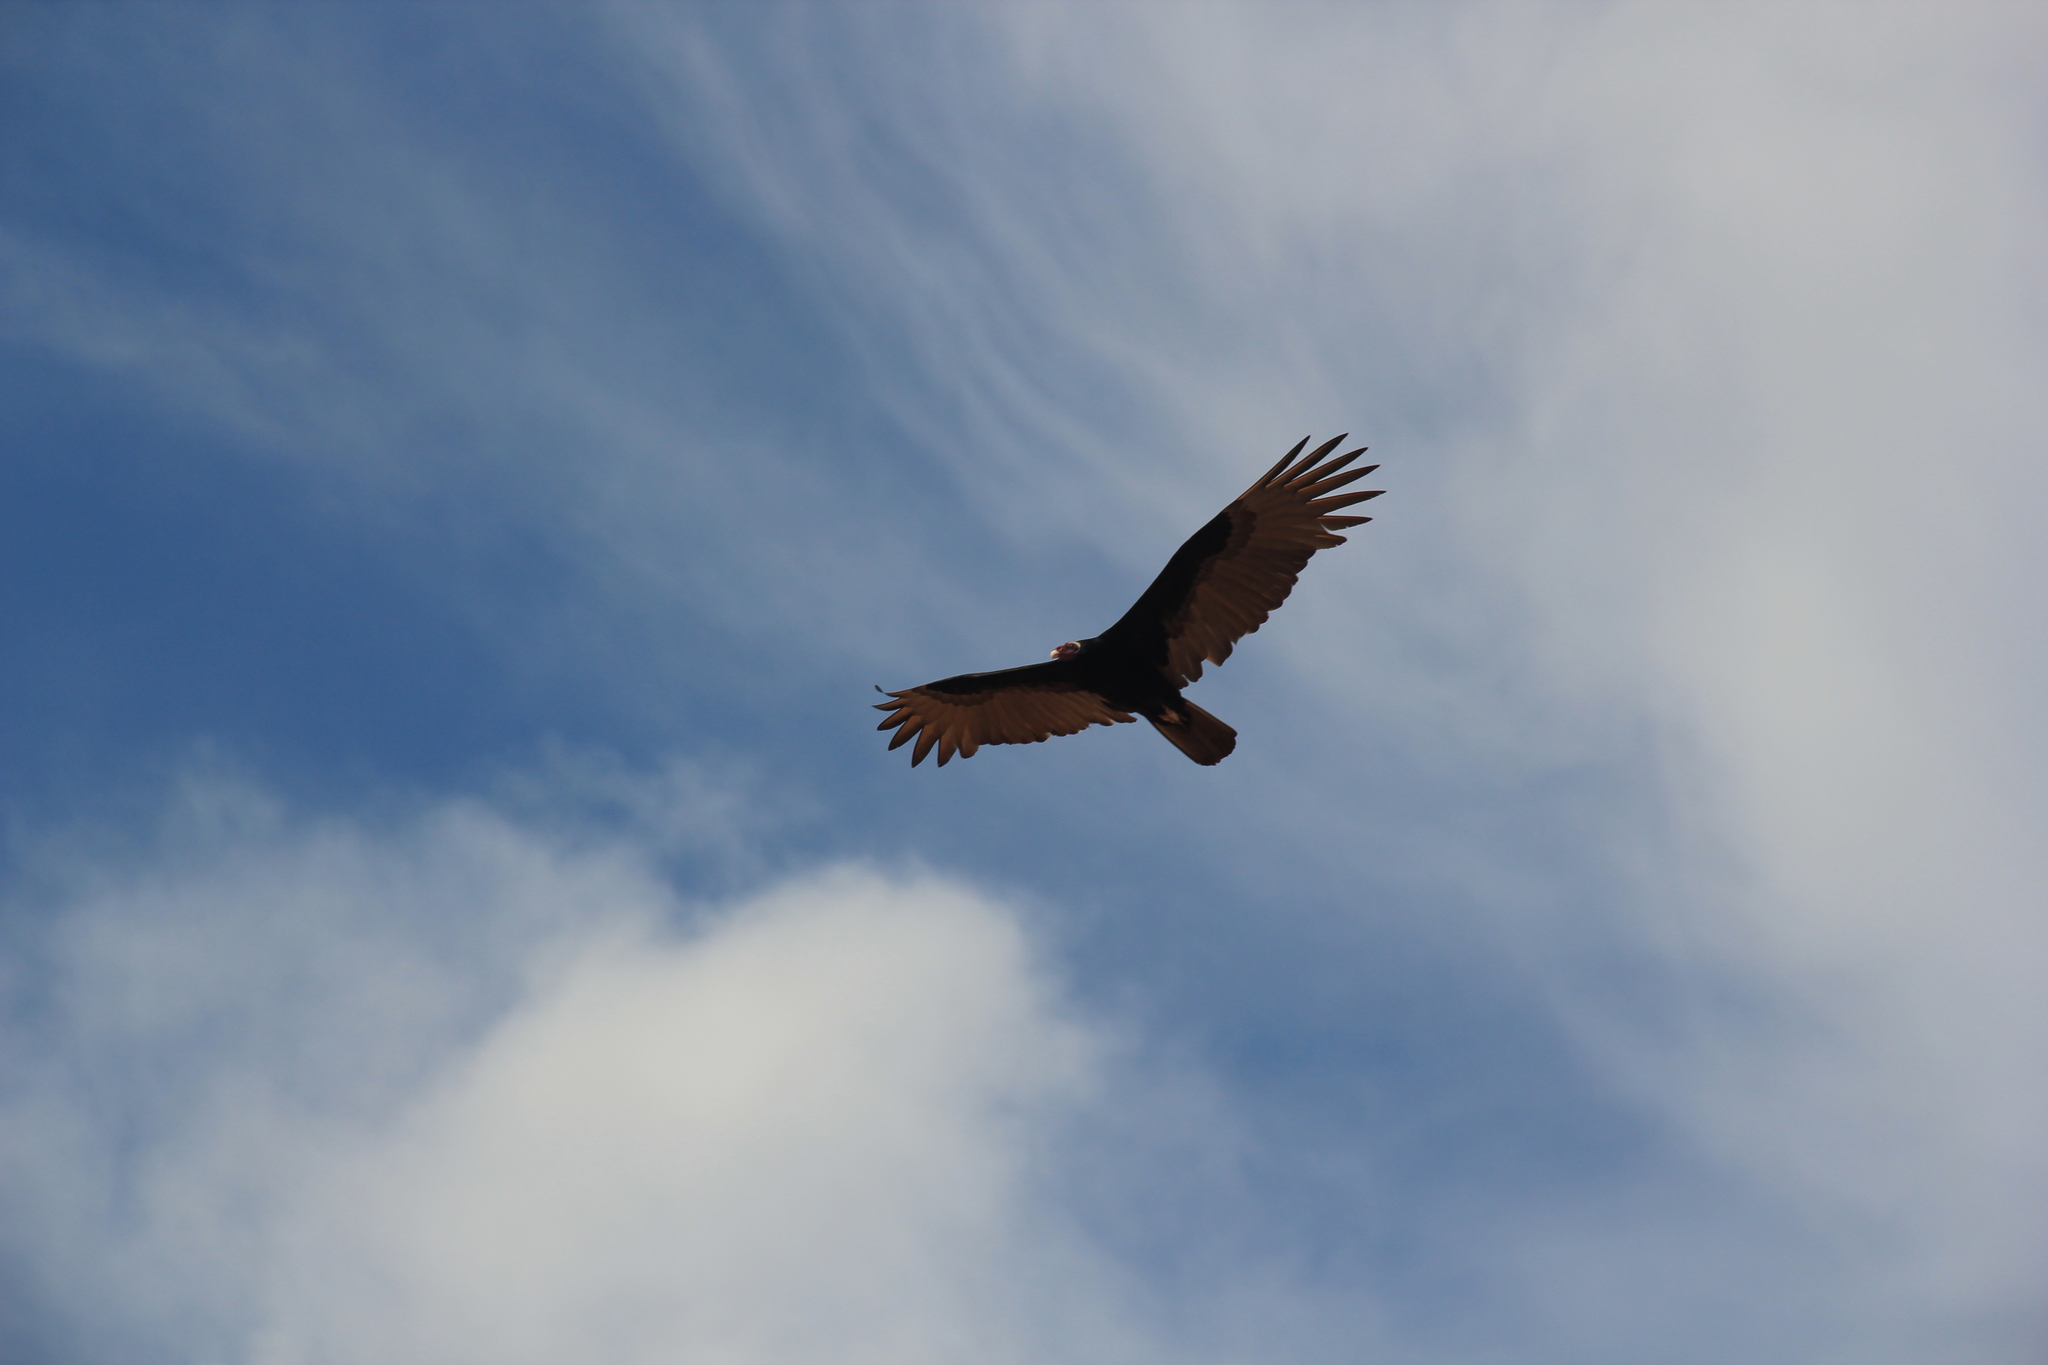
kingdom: Animalia
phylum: Chordata
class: Aves
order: Accipitriformes
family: Cathartidae
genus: Cathartes
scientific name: Cathartes aura
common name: Turkey vulture
